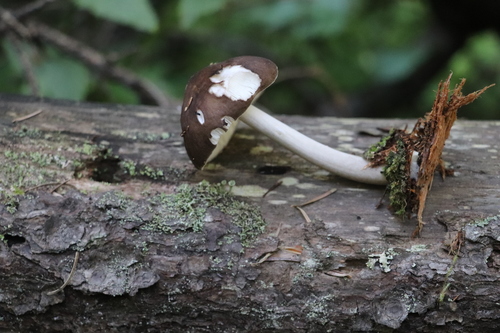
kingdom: Fungi
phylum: Basidiomycota
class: Agaricomycetes
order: Agaricales
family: Pluteaceae
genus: Pluteus
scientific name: Pluteus
